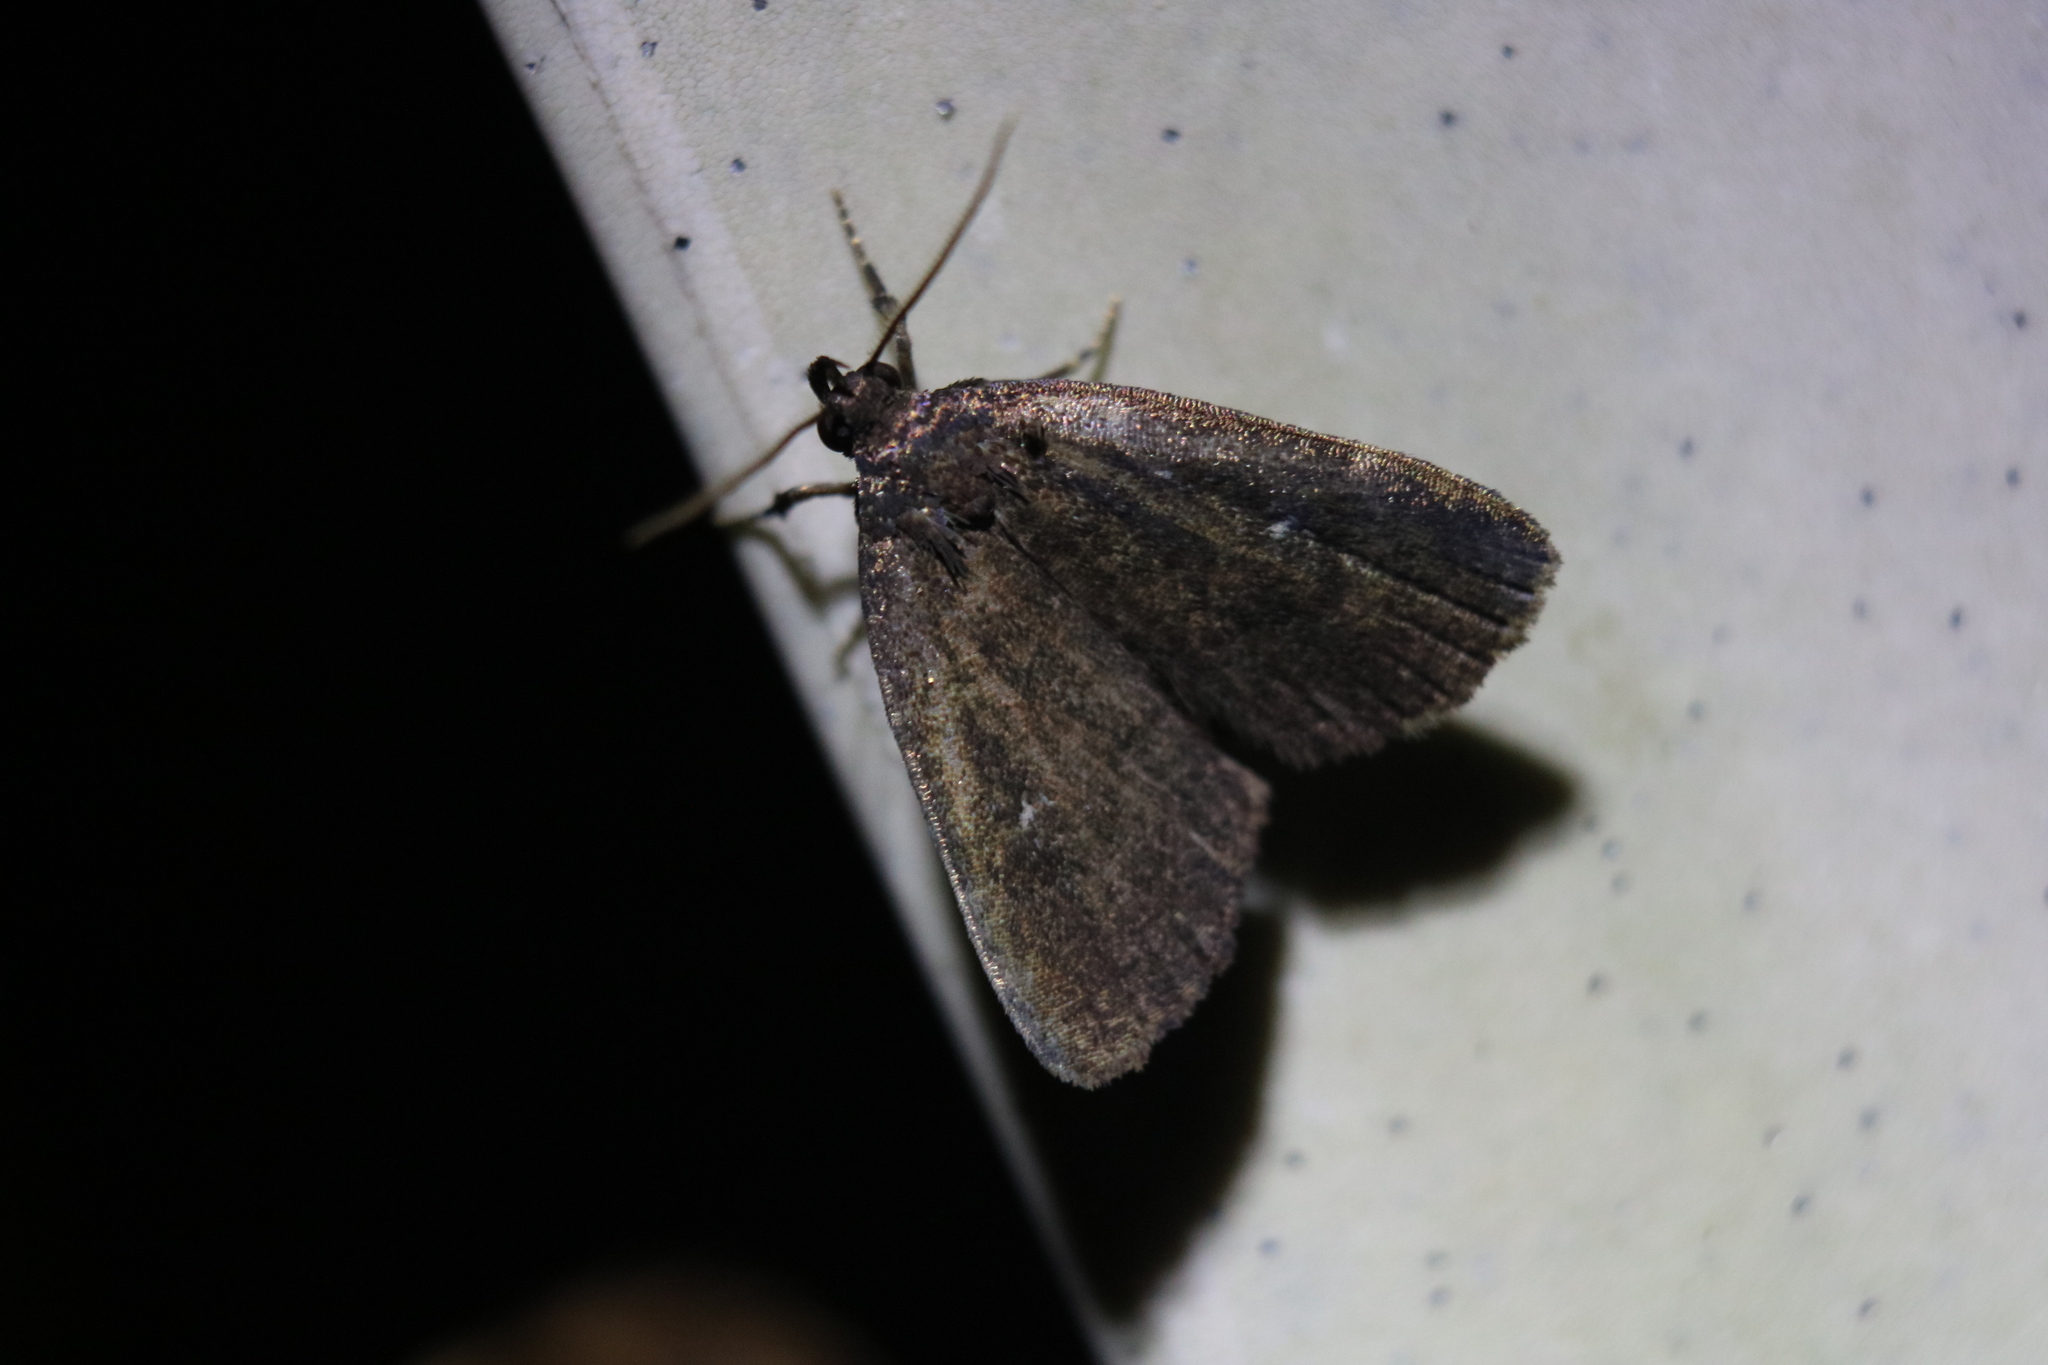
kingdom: Animalia
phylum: Arthropoda
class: Insecta
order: Lepidoptera
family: Erebidae
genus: Idia
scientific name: Idia rotundalis
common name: Rotund idia moth
